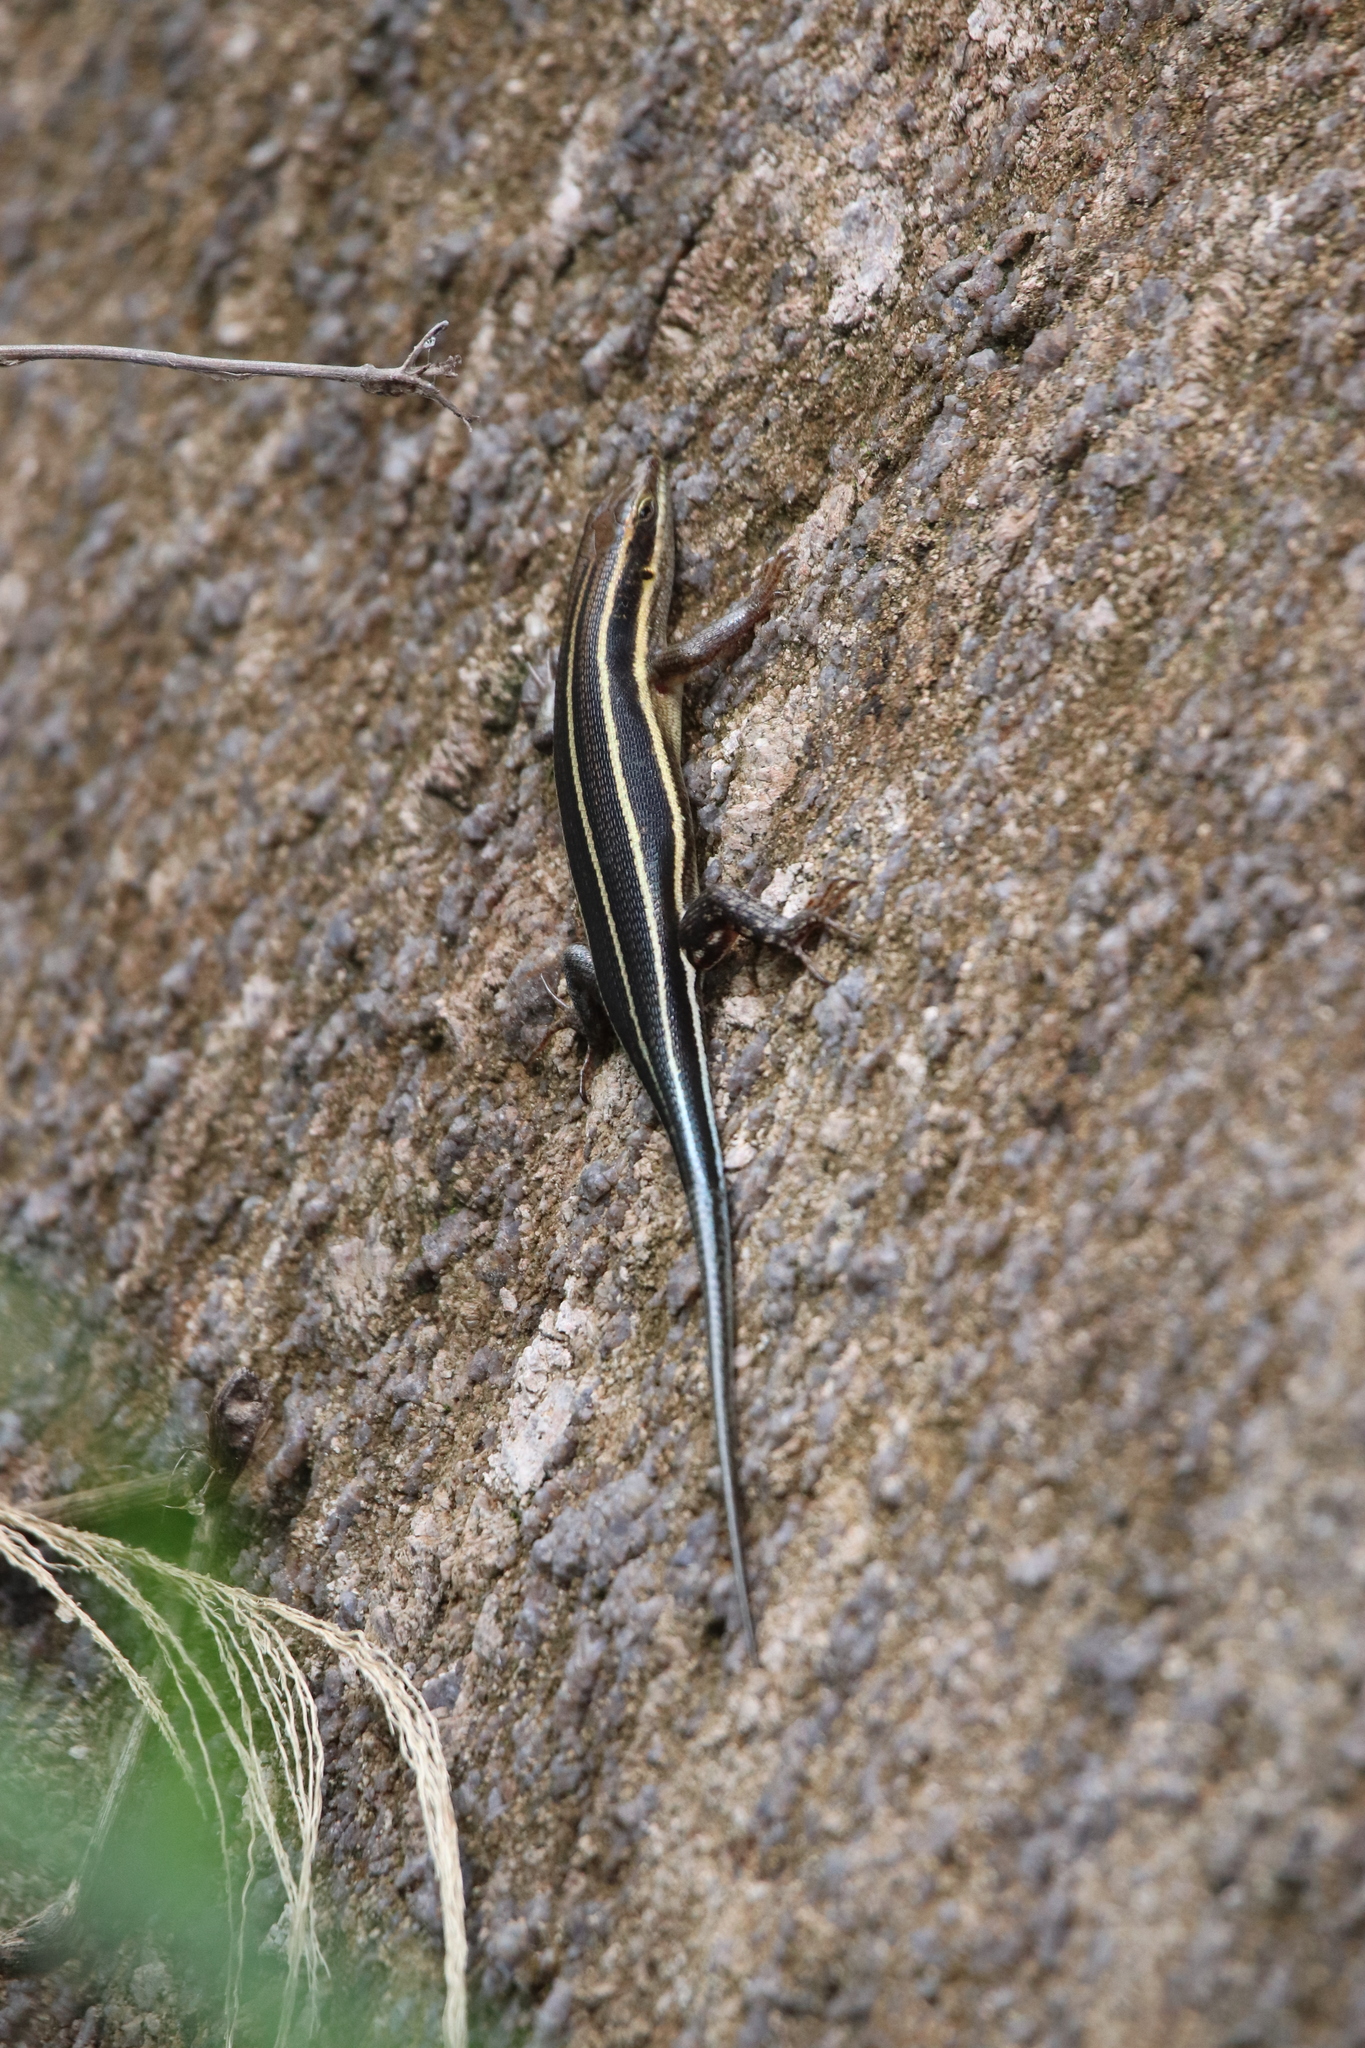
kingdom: Animalia
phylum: Chordata
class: Squamata
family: Scincidae
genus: Trachylepis
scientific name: Trachylepis quinquetaeniata
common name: African five-lined skink
